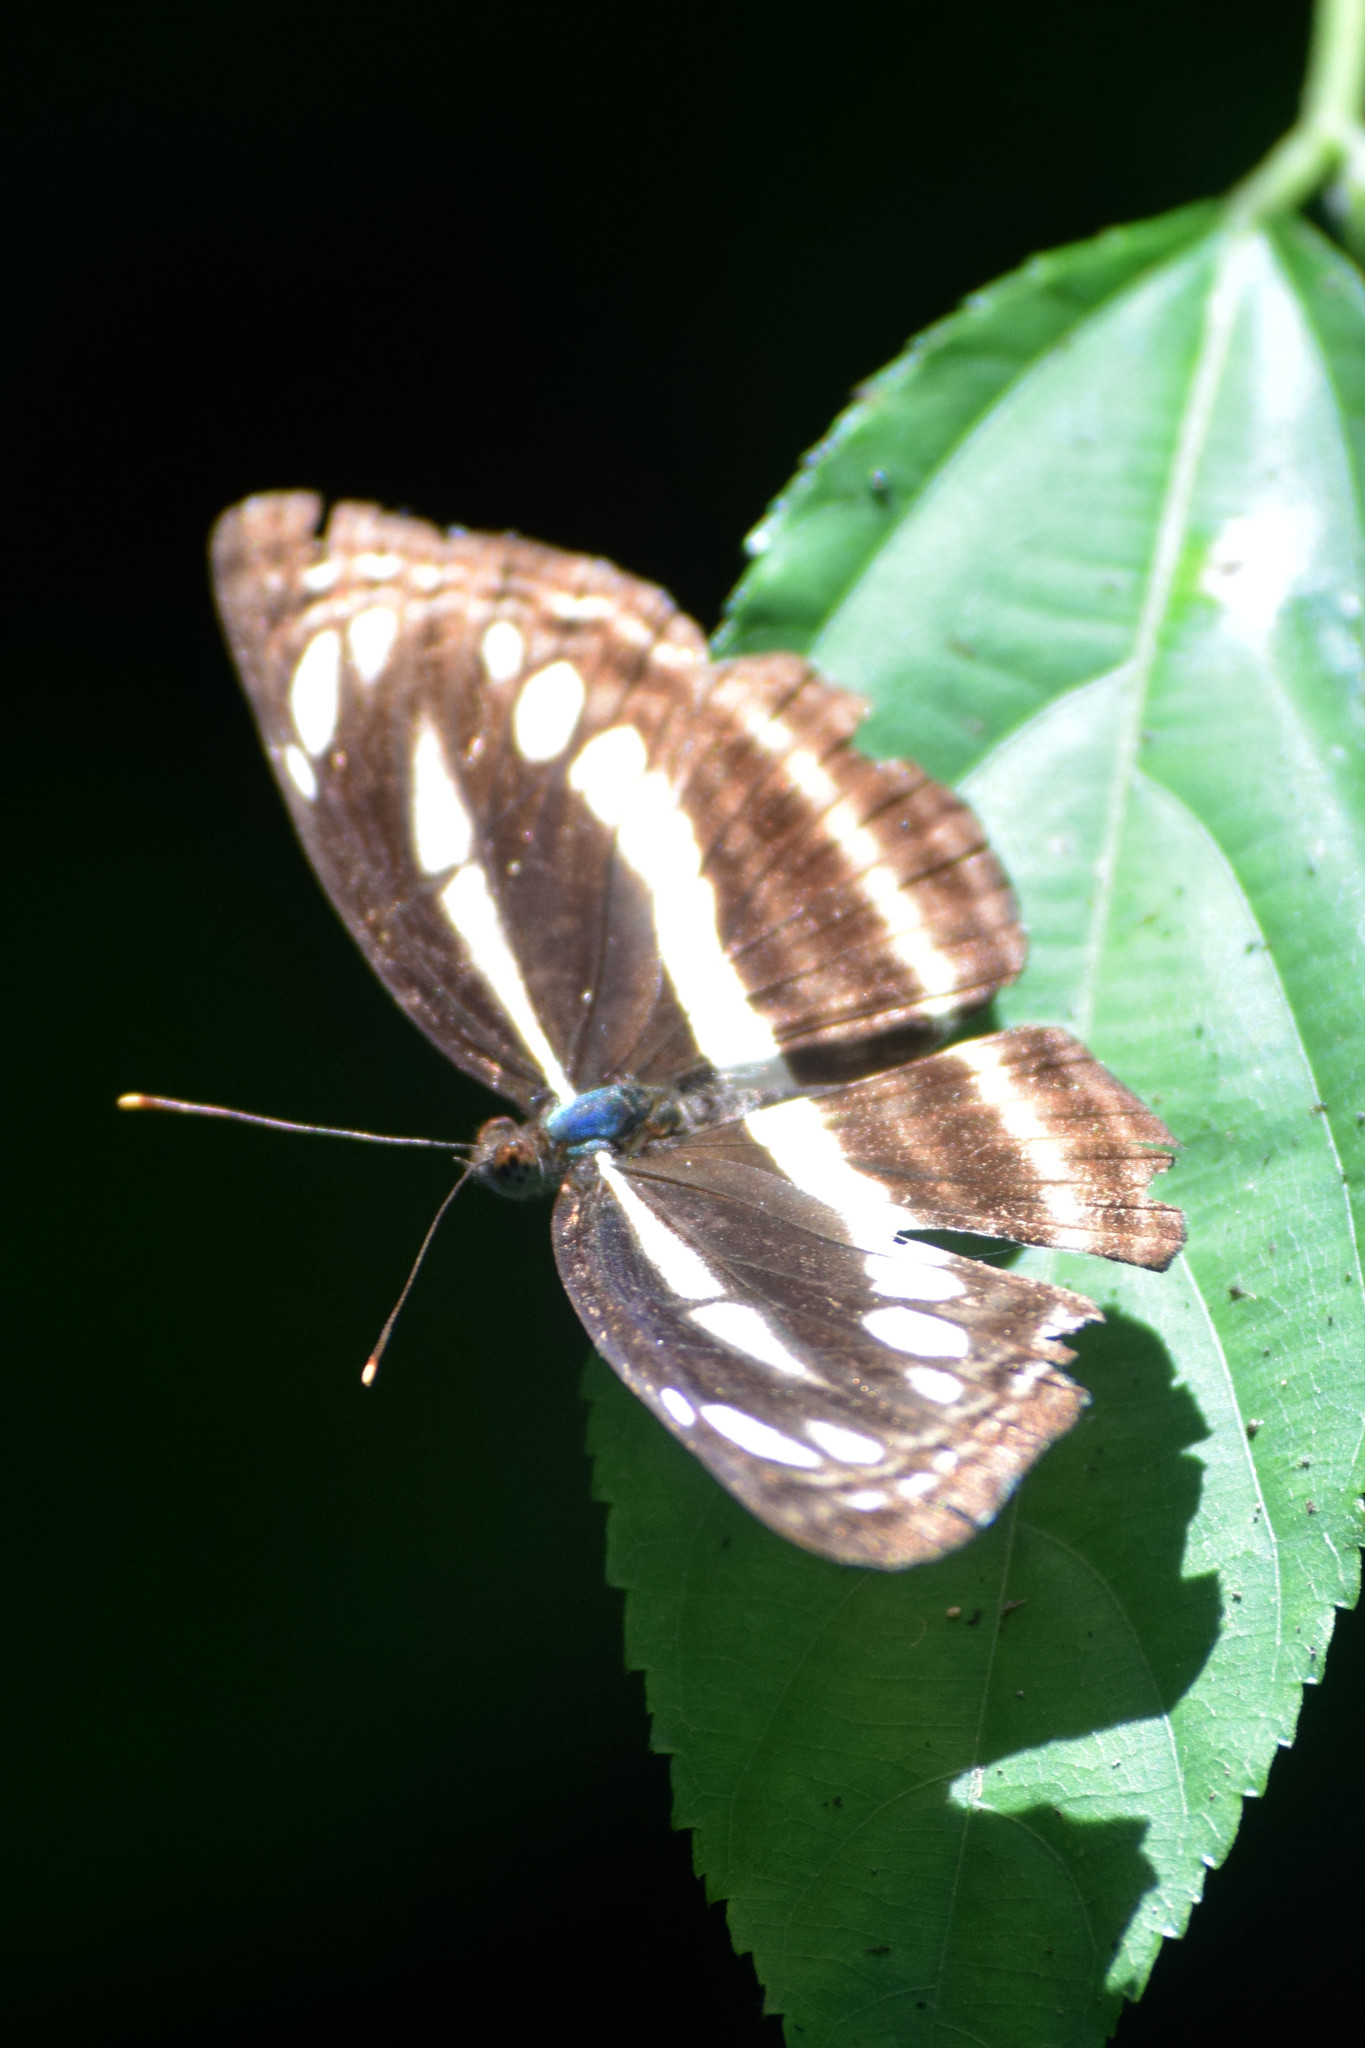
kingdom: Animalia
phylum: Arthropoda
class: Insecta
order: Lepidoptera
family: Nymphalidae
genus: Neptis
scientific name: Neptis clinia
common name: Southern sullied sailer
